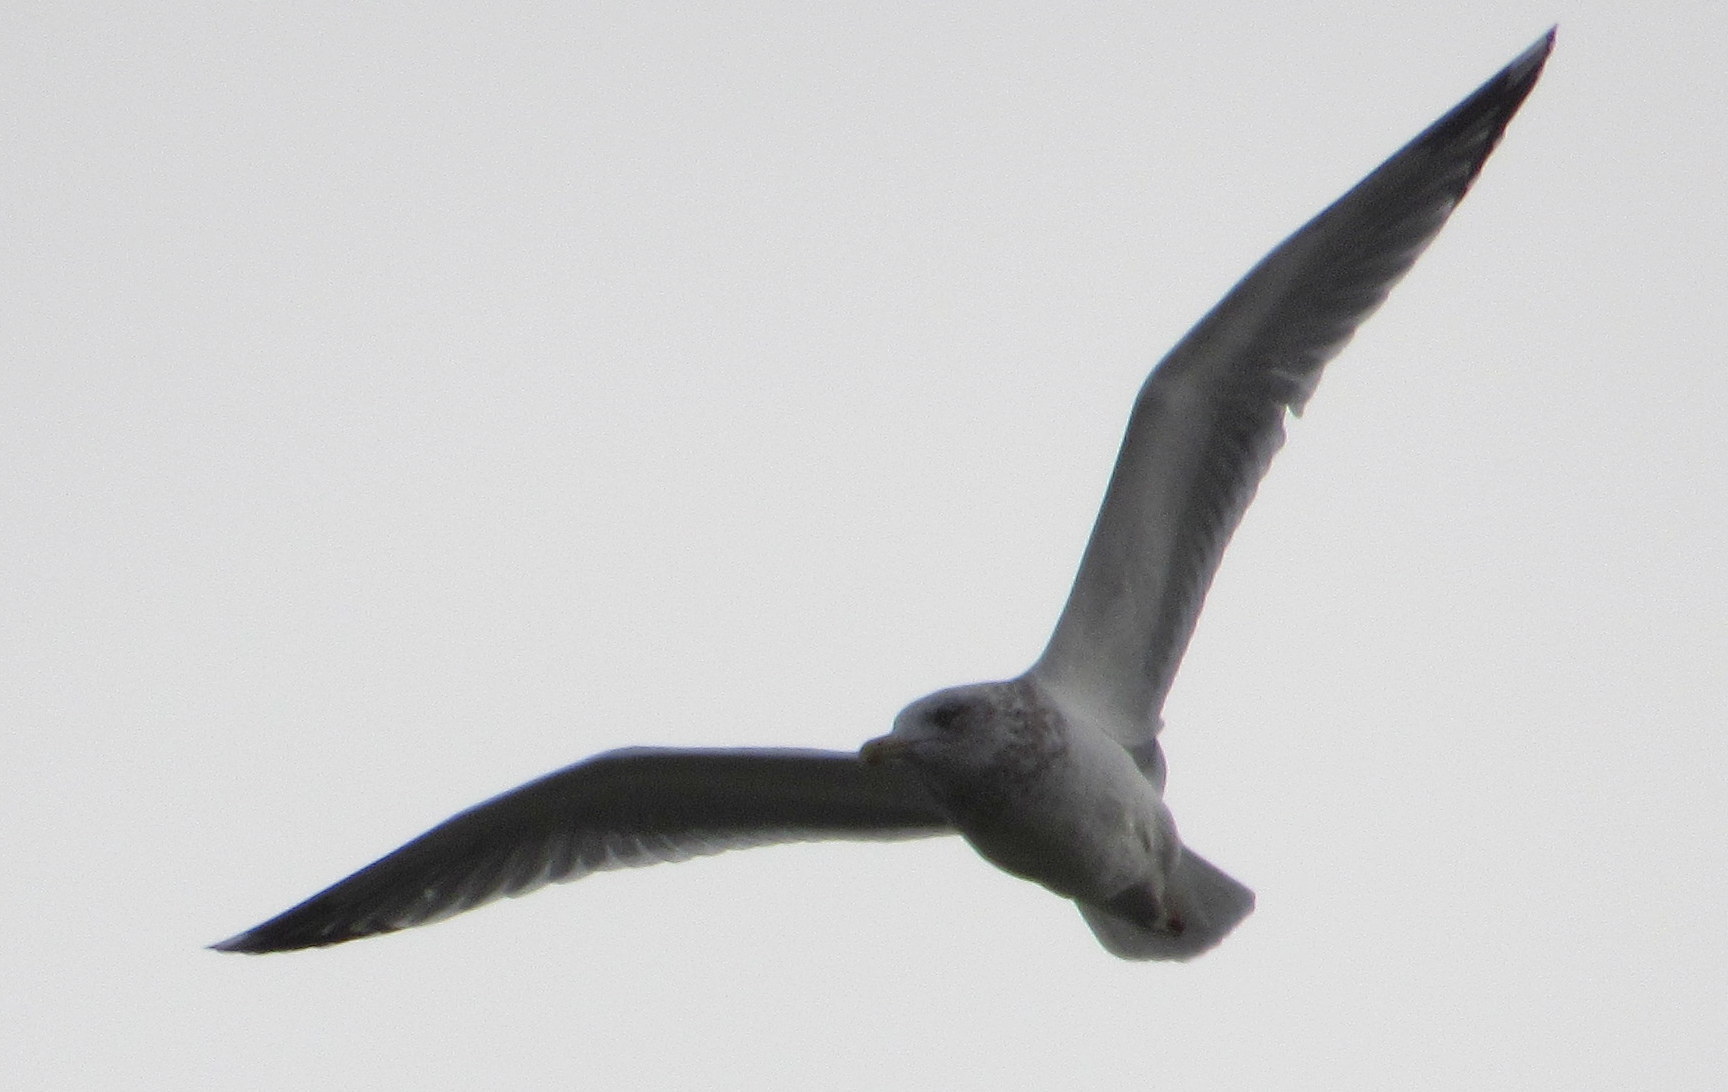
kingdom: Animalia
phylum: Chordata
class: Aves
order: Charadriiformes
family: Laridae
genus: Larus
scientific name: Larus delawarensis
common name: Ring-billed gull
